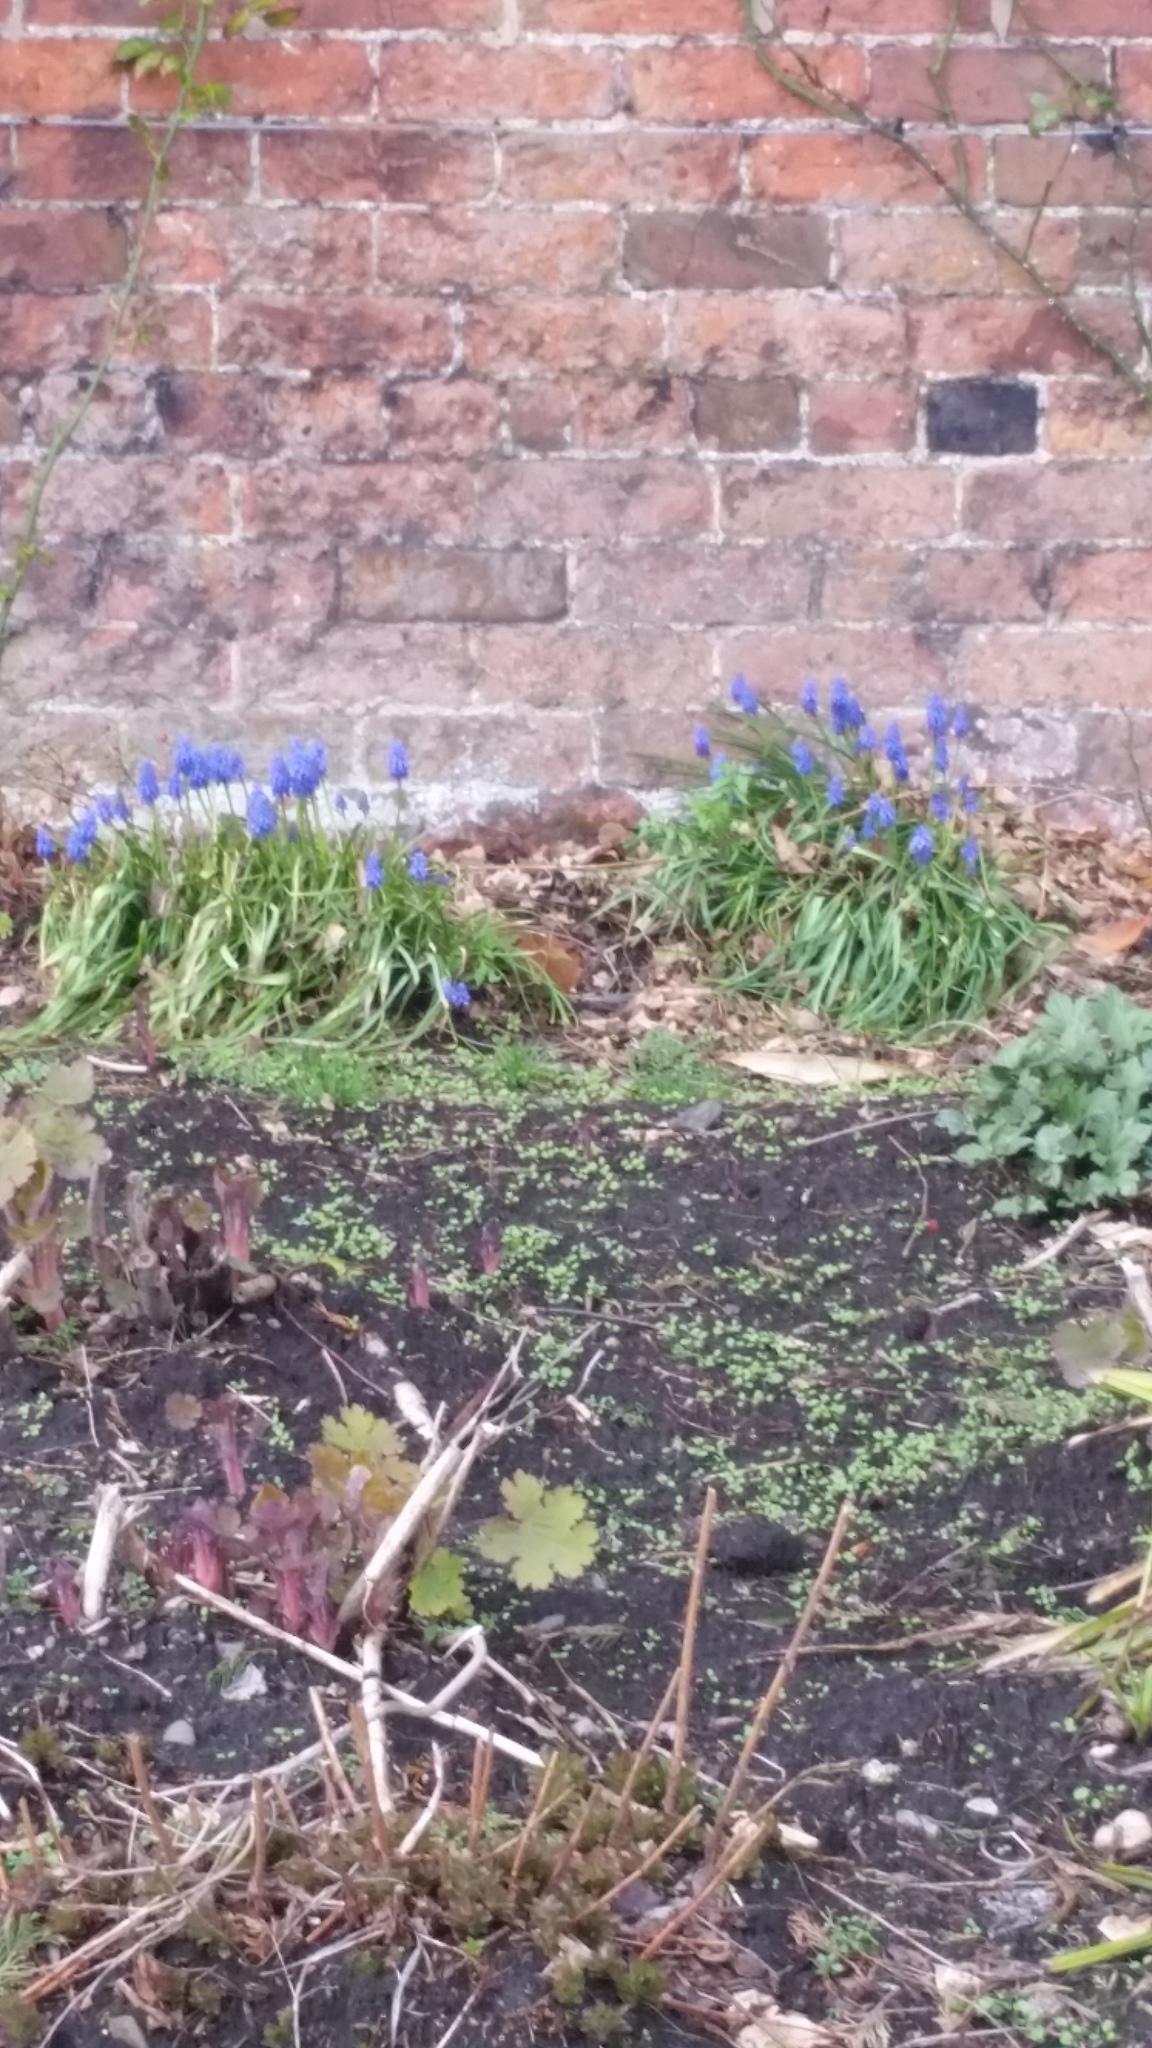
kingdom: Plantae
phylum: Tracheophyta
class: Liliopsida
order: Asparagales
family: Asparagaceae
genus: Muscari
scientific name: Muscari armeniacum
